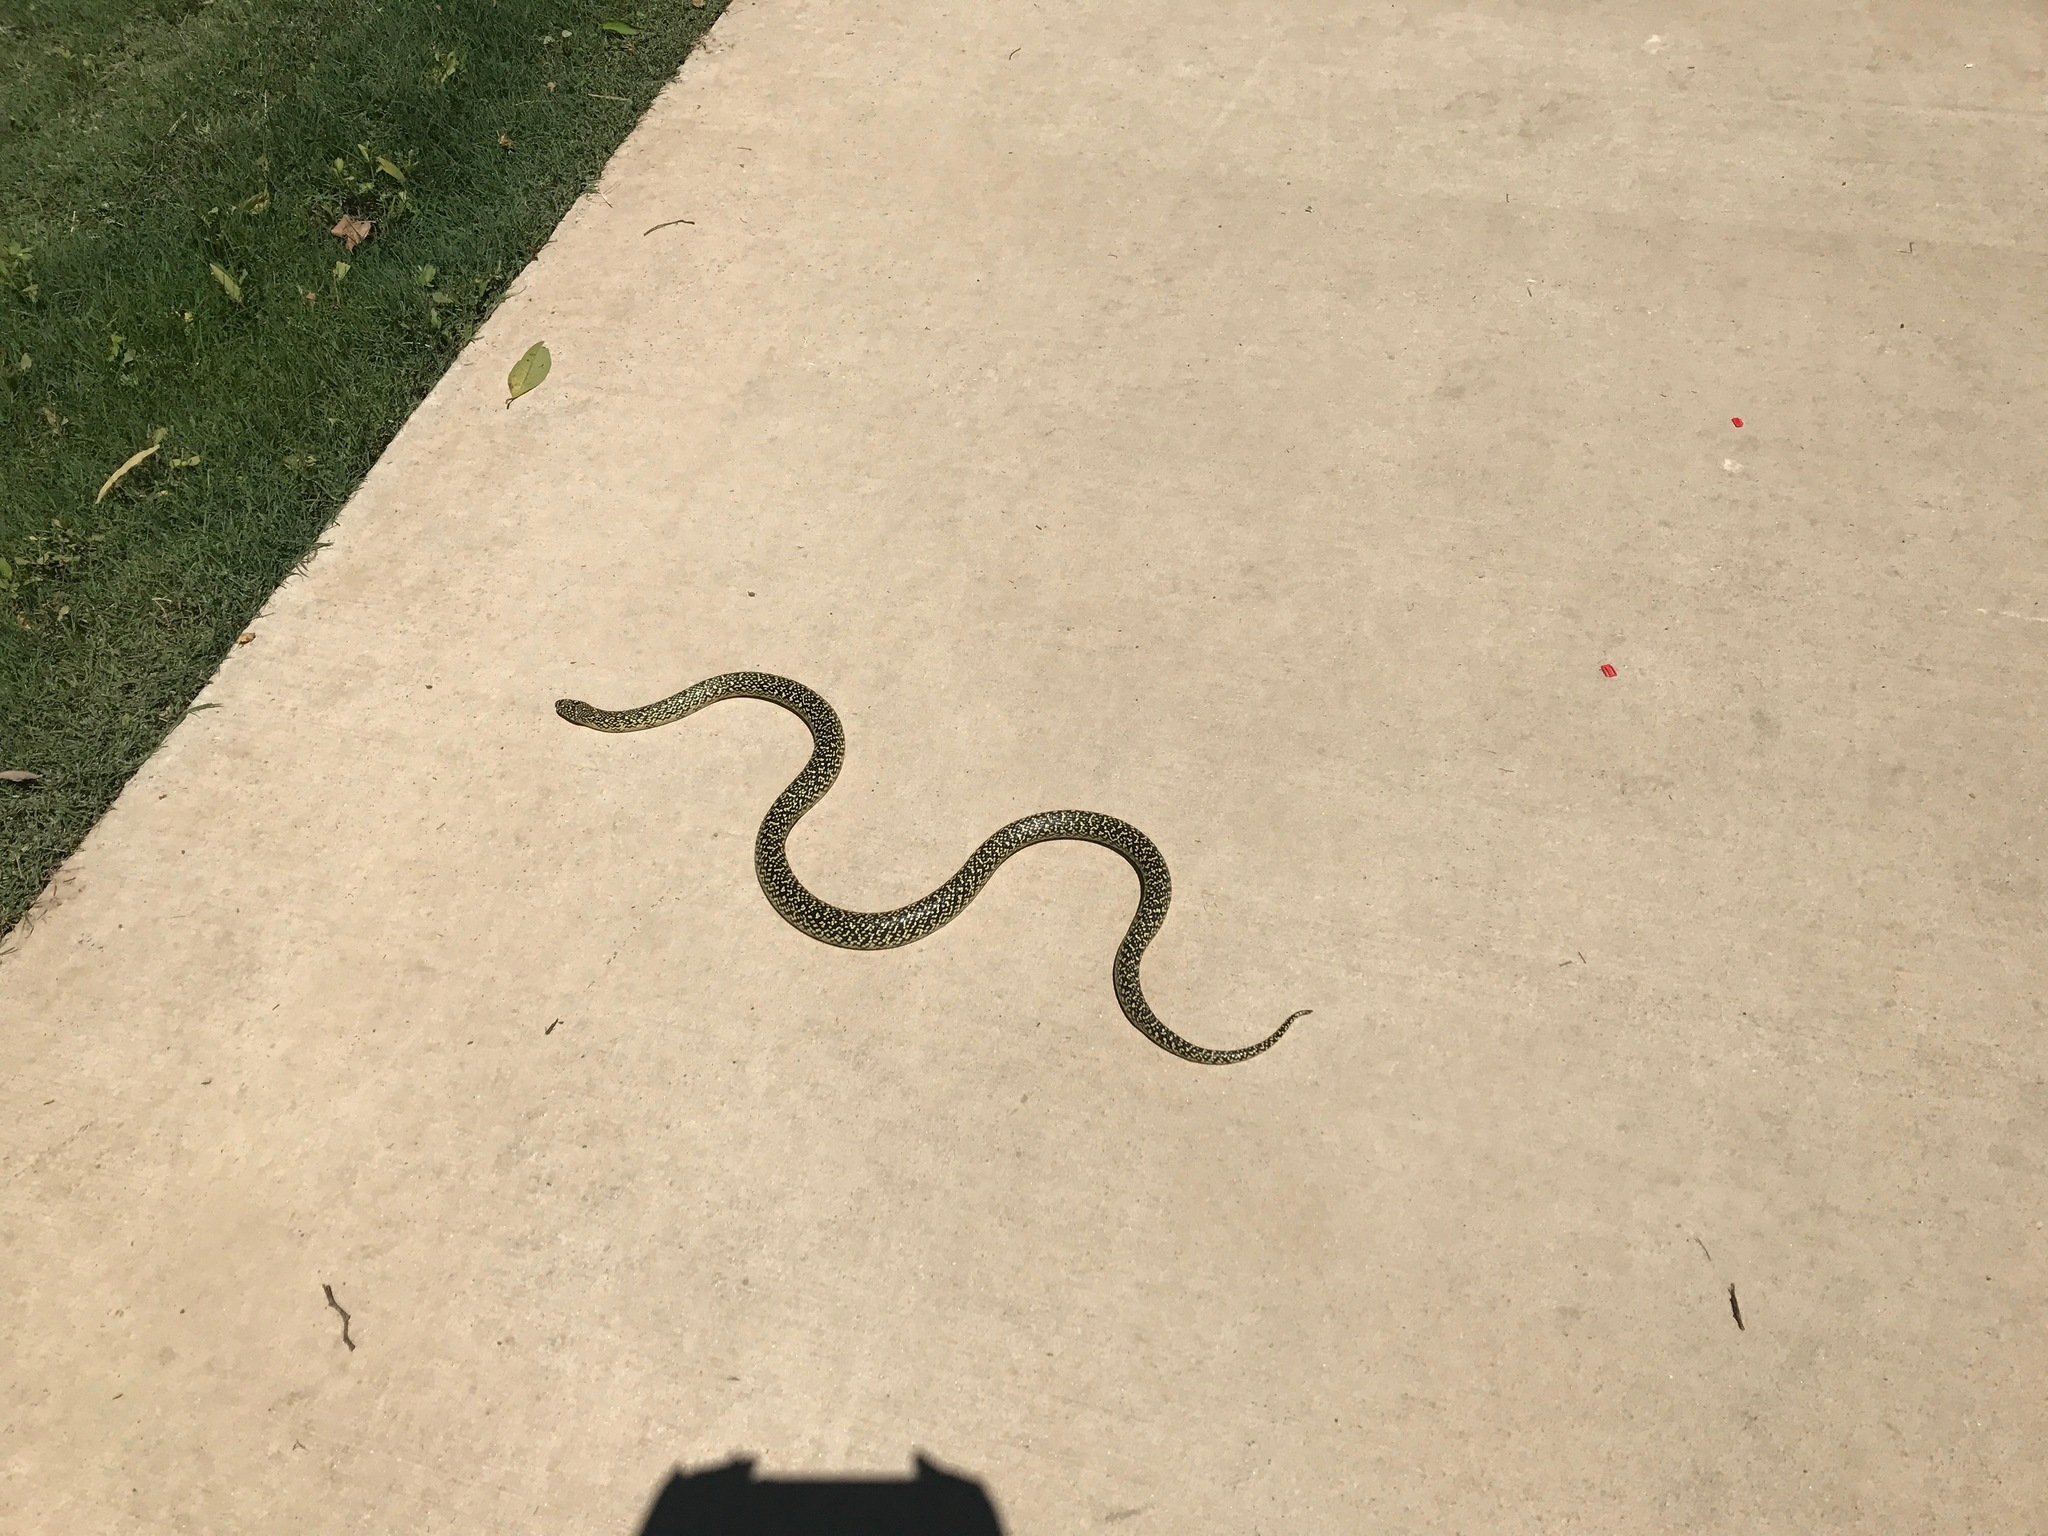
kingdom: Animalia
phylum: Chordata
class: Squamata
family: Colubridae
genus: Lampropeltis
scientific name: Lampropeltis holbrooki
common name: Speckled kingsnake
